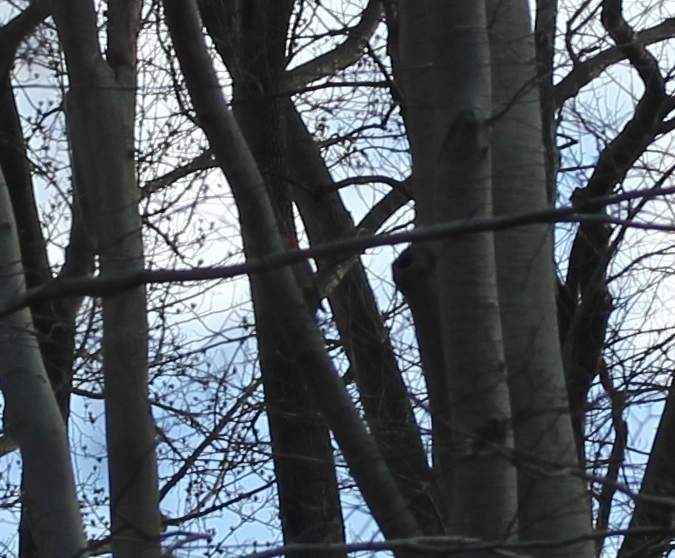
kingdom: Animalia
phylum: Chordata
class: Aves
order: Piciformes
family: Picidae
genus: Melanerpes
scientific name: Melanerpes carolinus
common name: Red-bellied woodpecker
